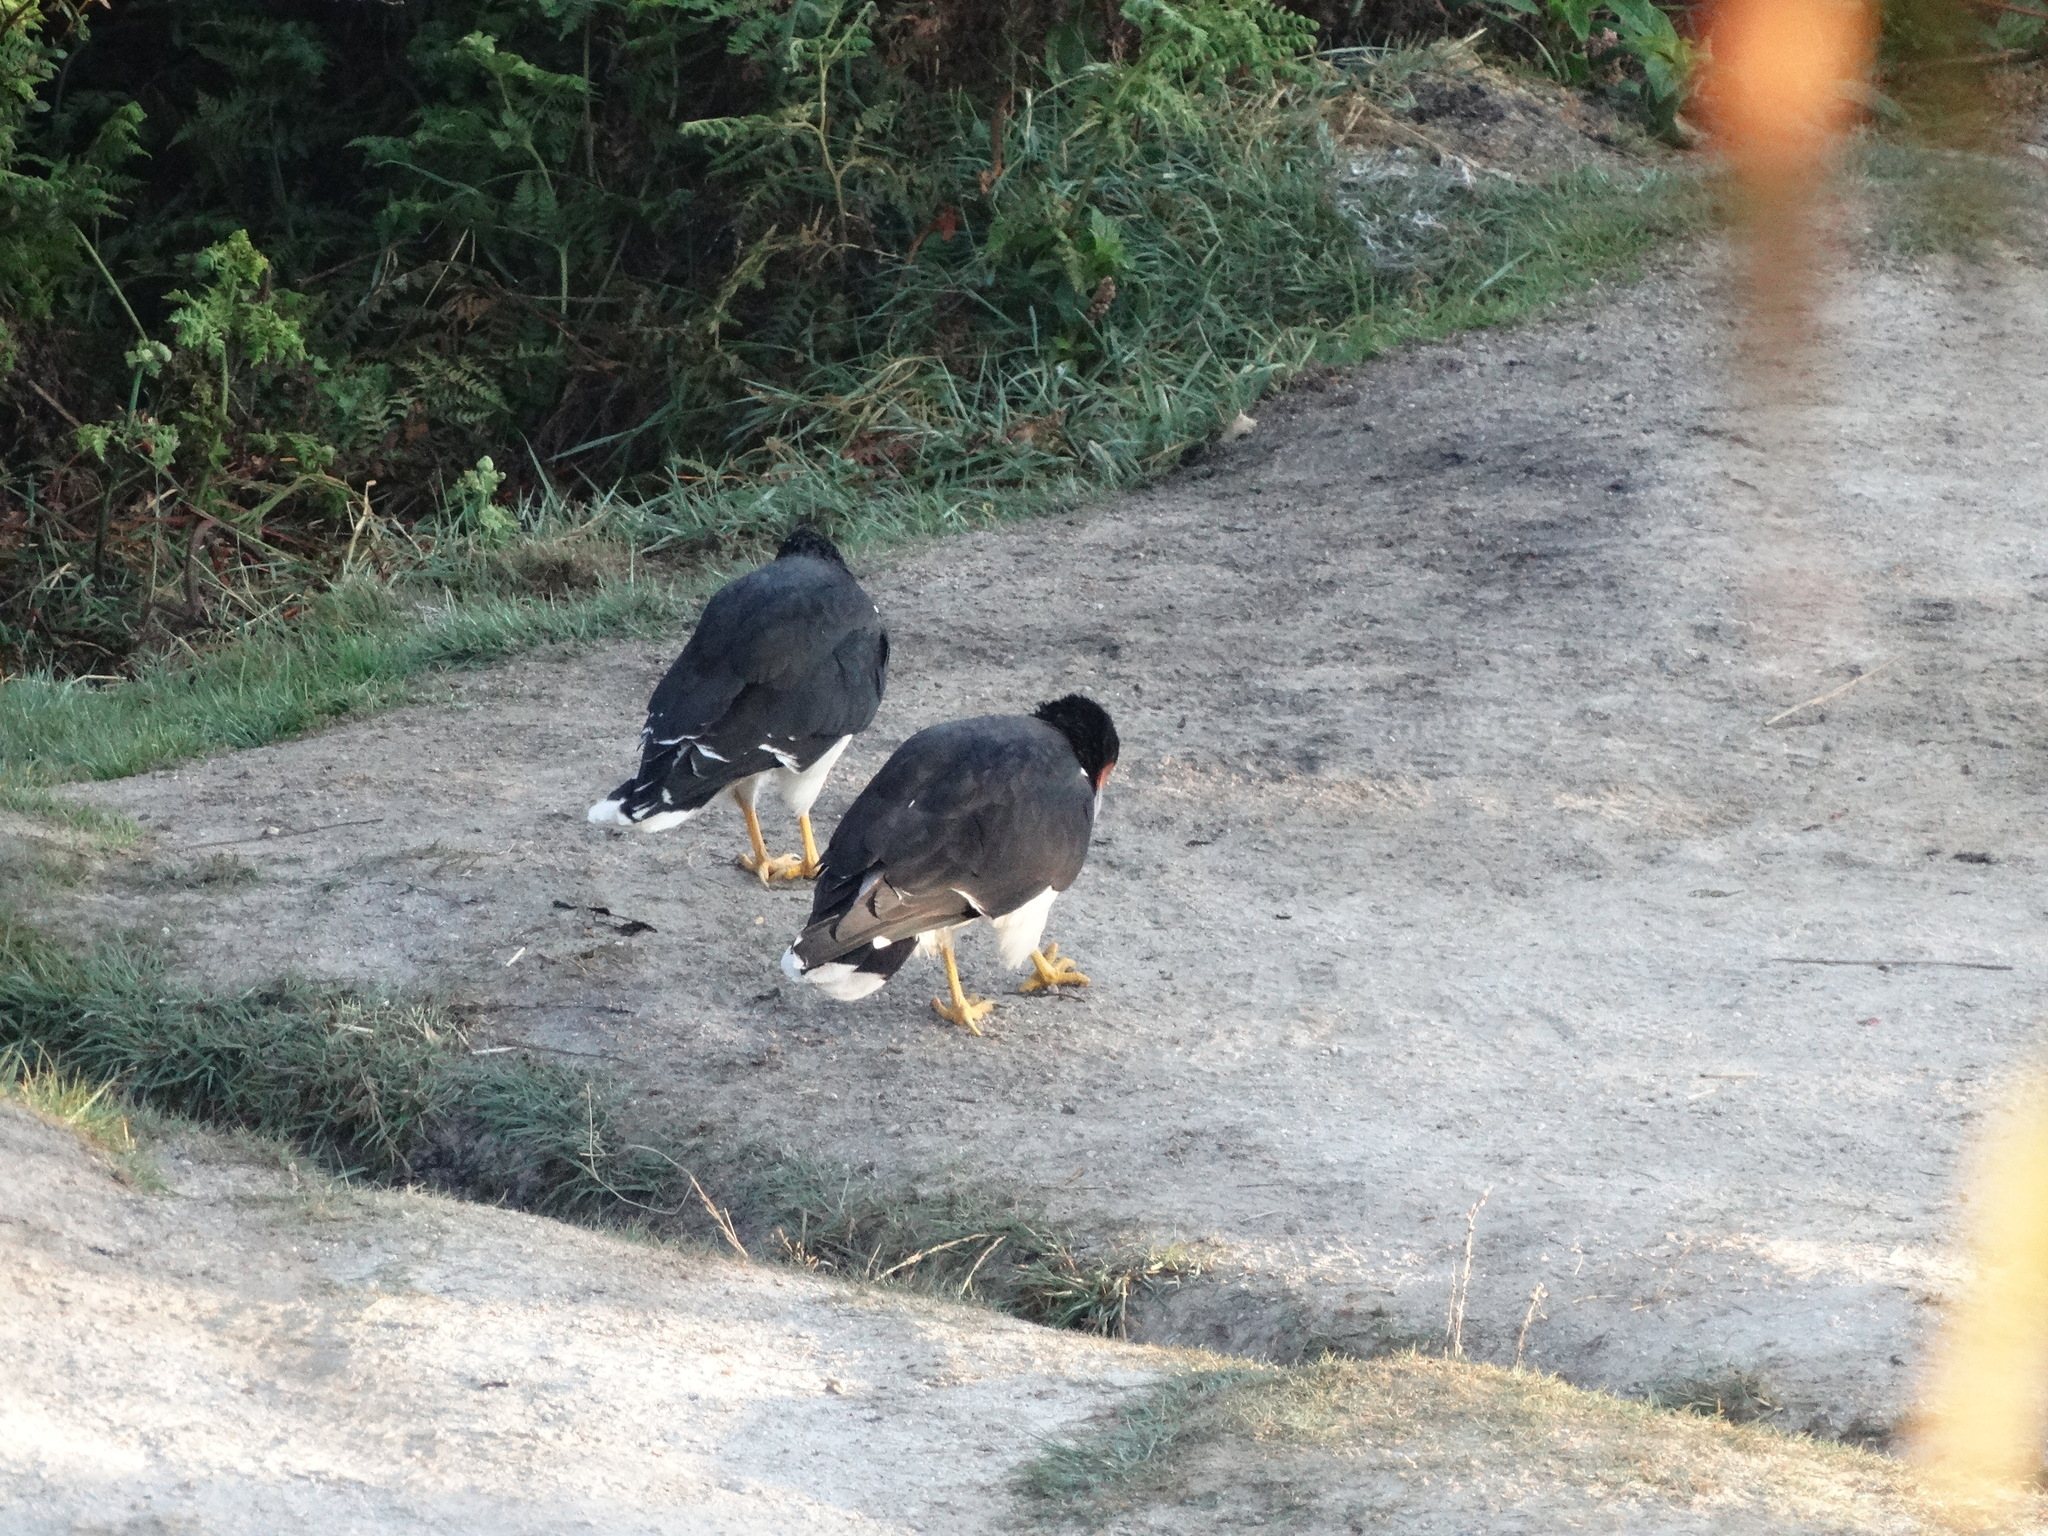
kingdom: Animalia
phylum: Chordata
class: Aves
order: Falconiformes
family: Falconidae
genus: Daptrius
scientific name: Daptrius
